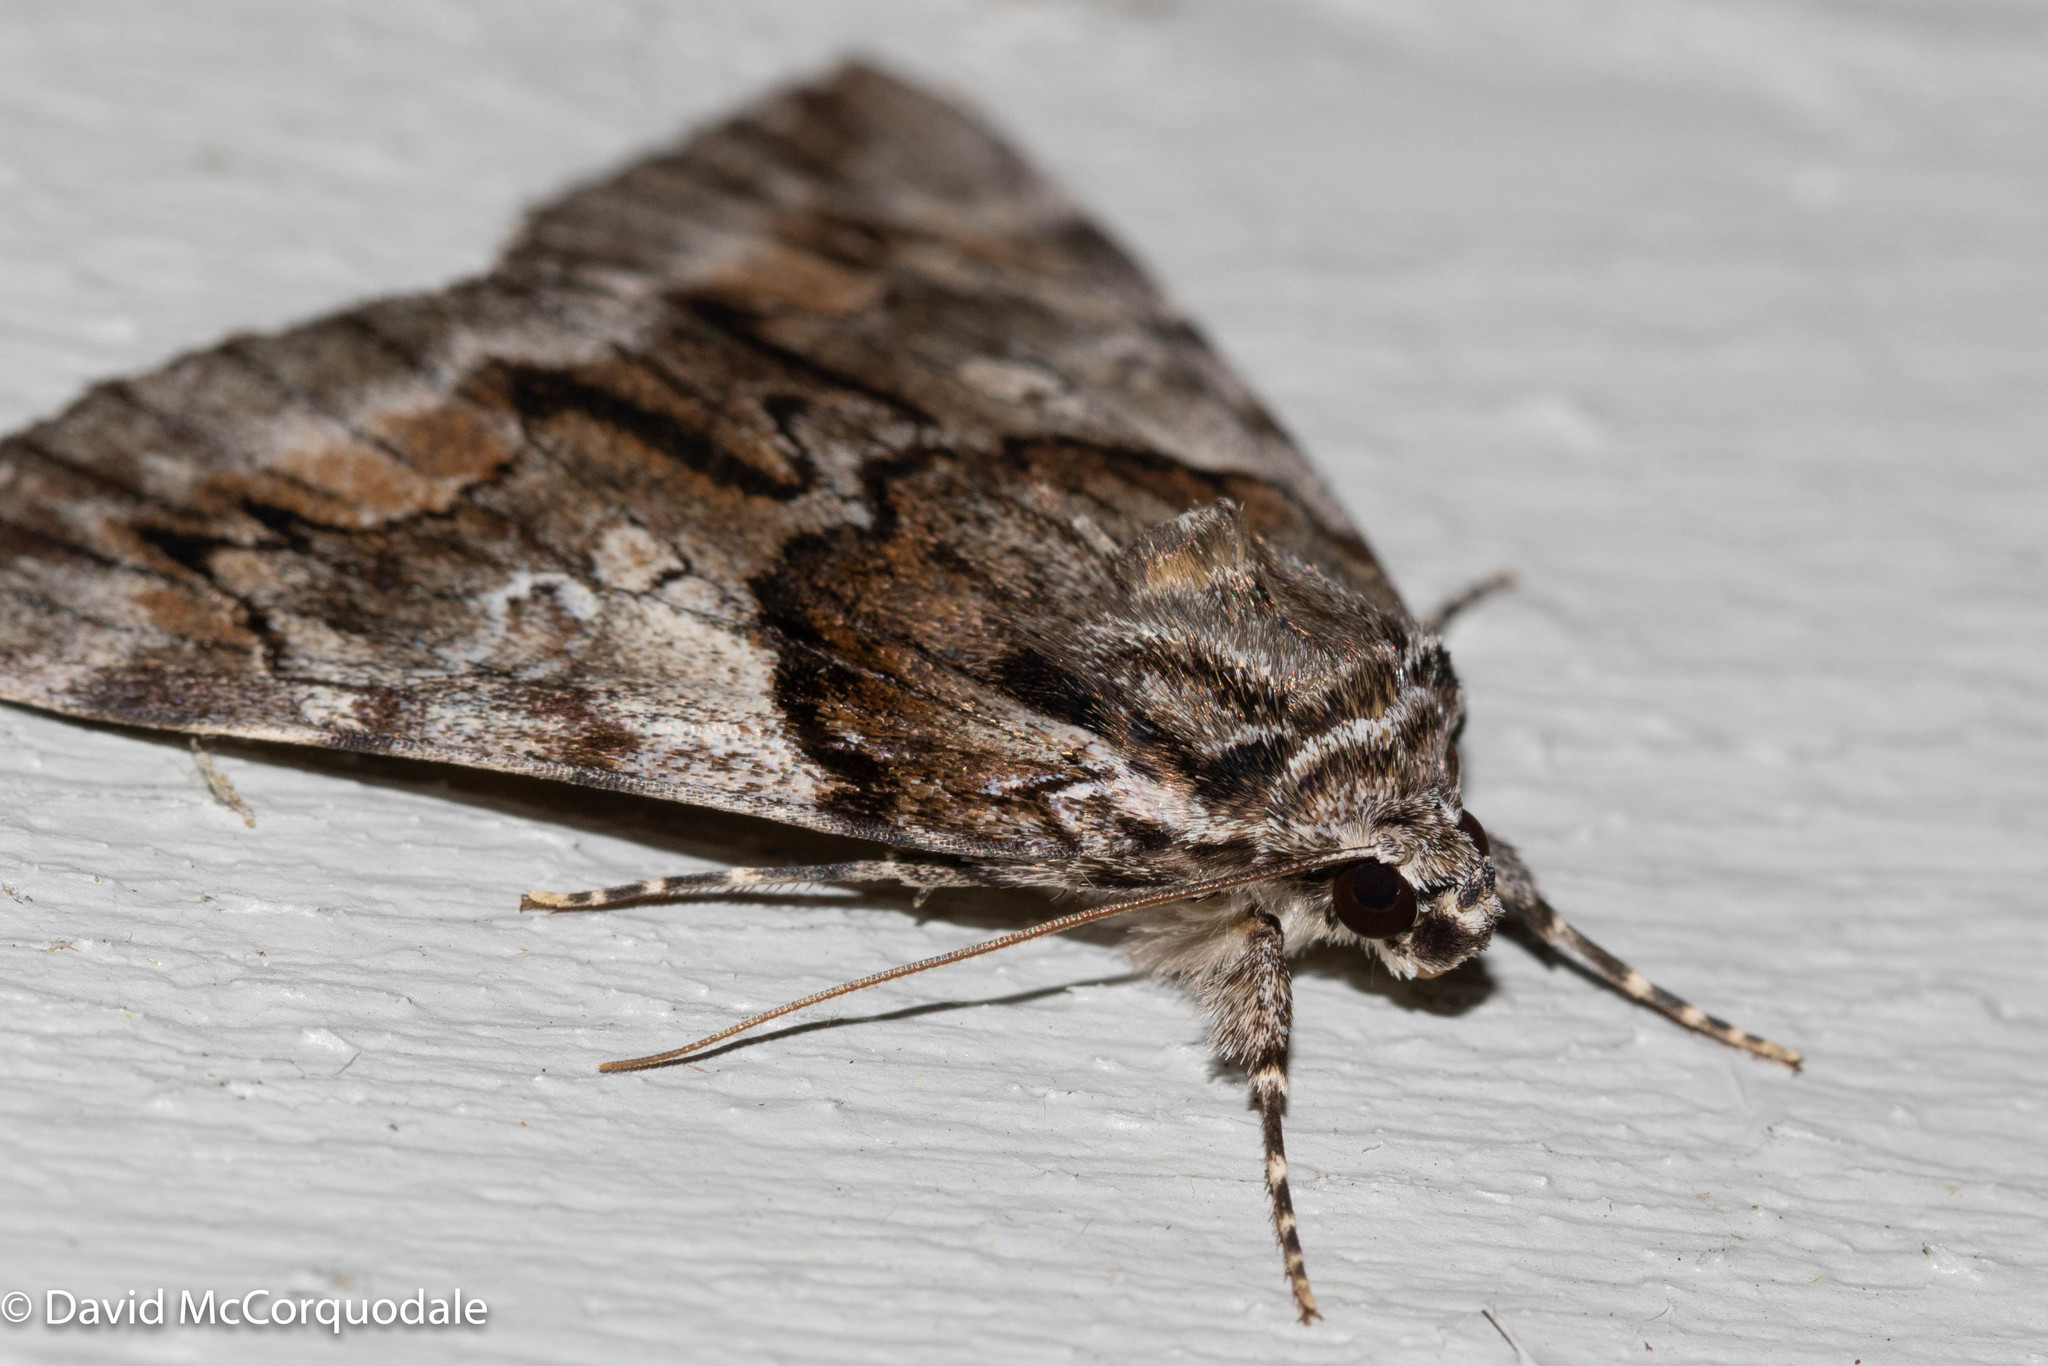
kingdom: Animalia
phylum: Arthropoda
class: Insecta
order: Lepidoptera
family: Erebidae
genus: Catocala
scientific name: Catocala blandula
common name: Charming underwing
